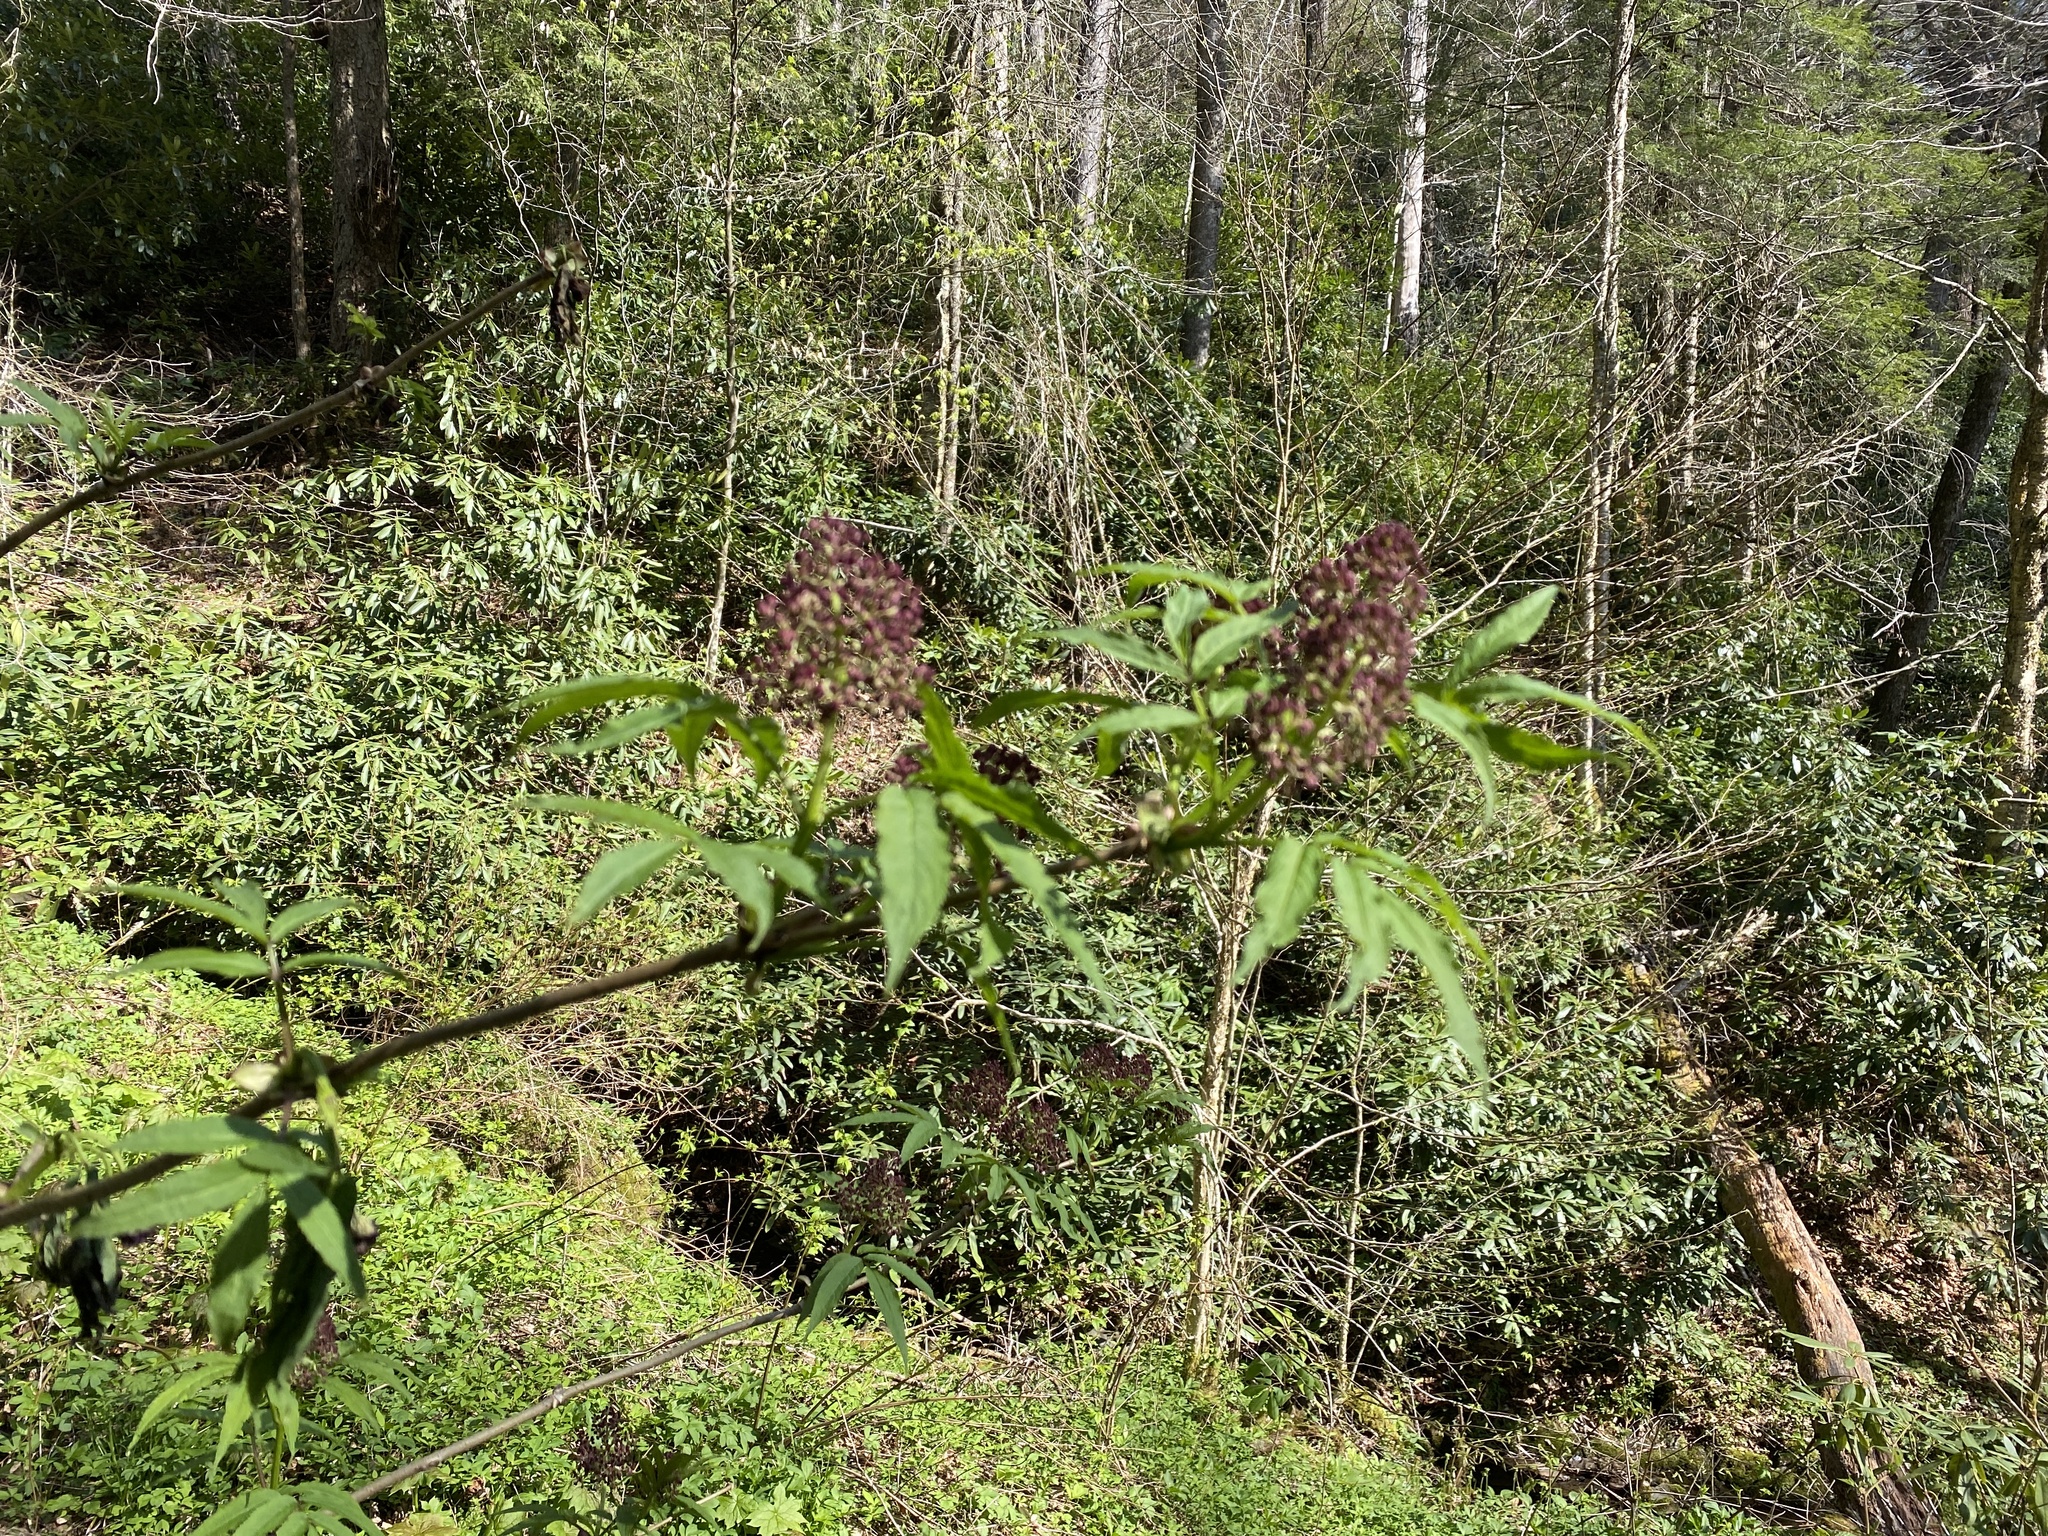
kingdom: Plantae
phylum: Tracheophyta
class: Magnoliopsida
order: Dipsacales
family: Viburnaceae
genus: Sambucus
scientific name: Sambucus racemosa
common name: Red-berried elder
